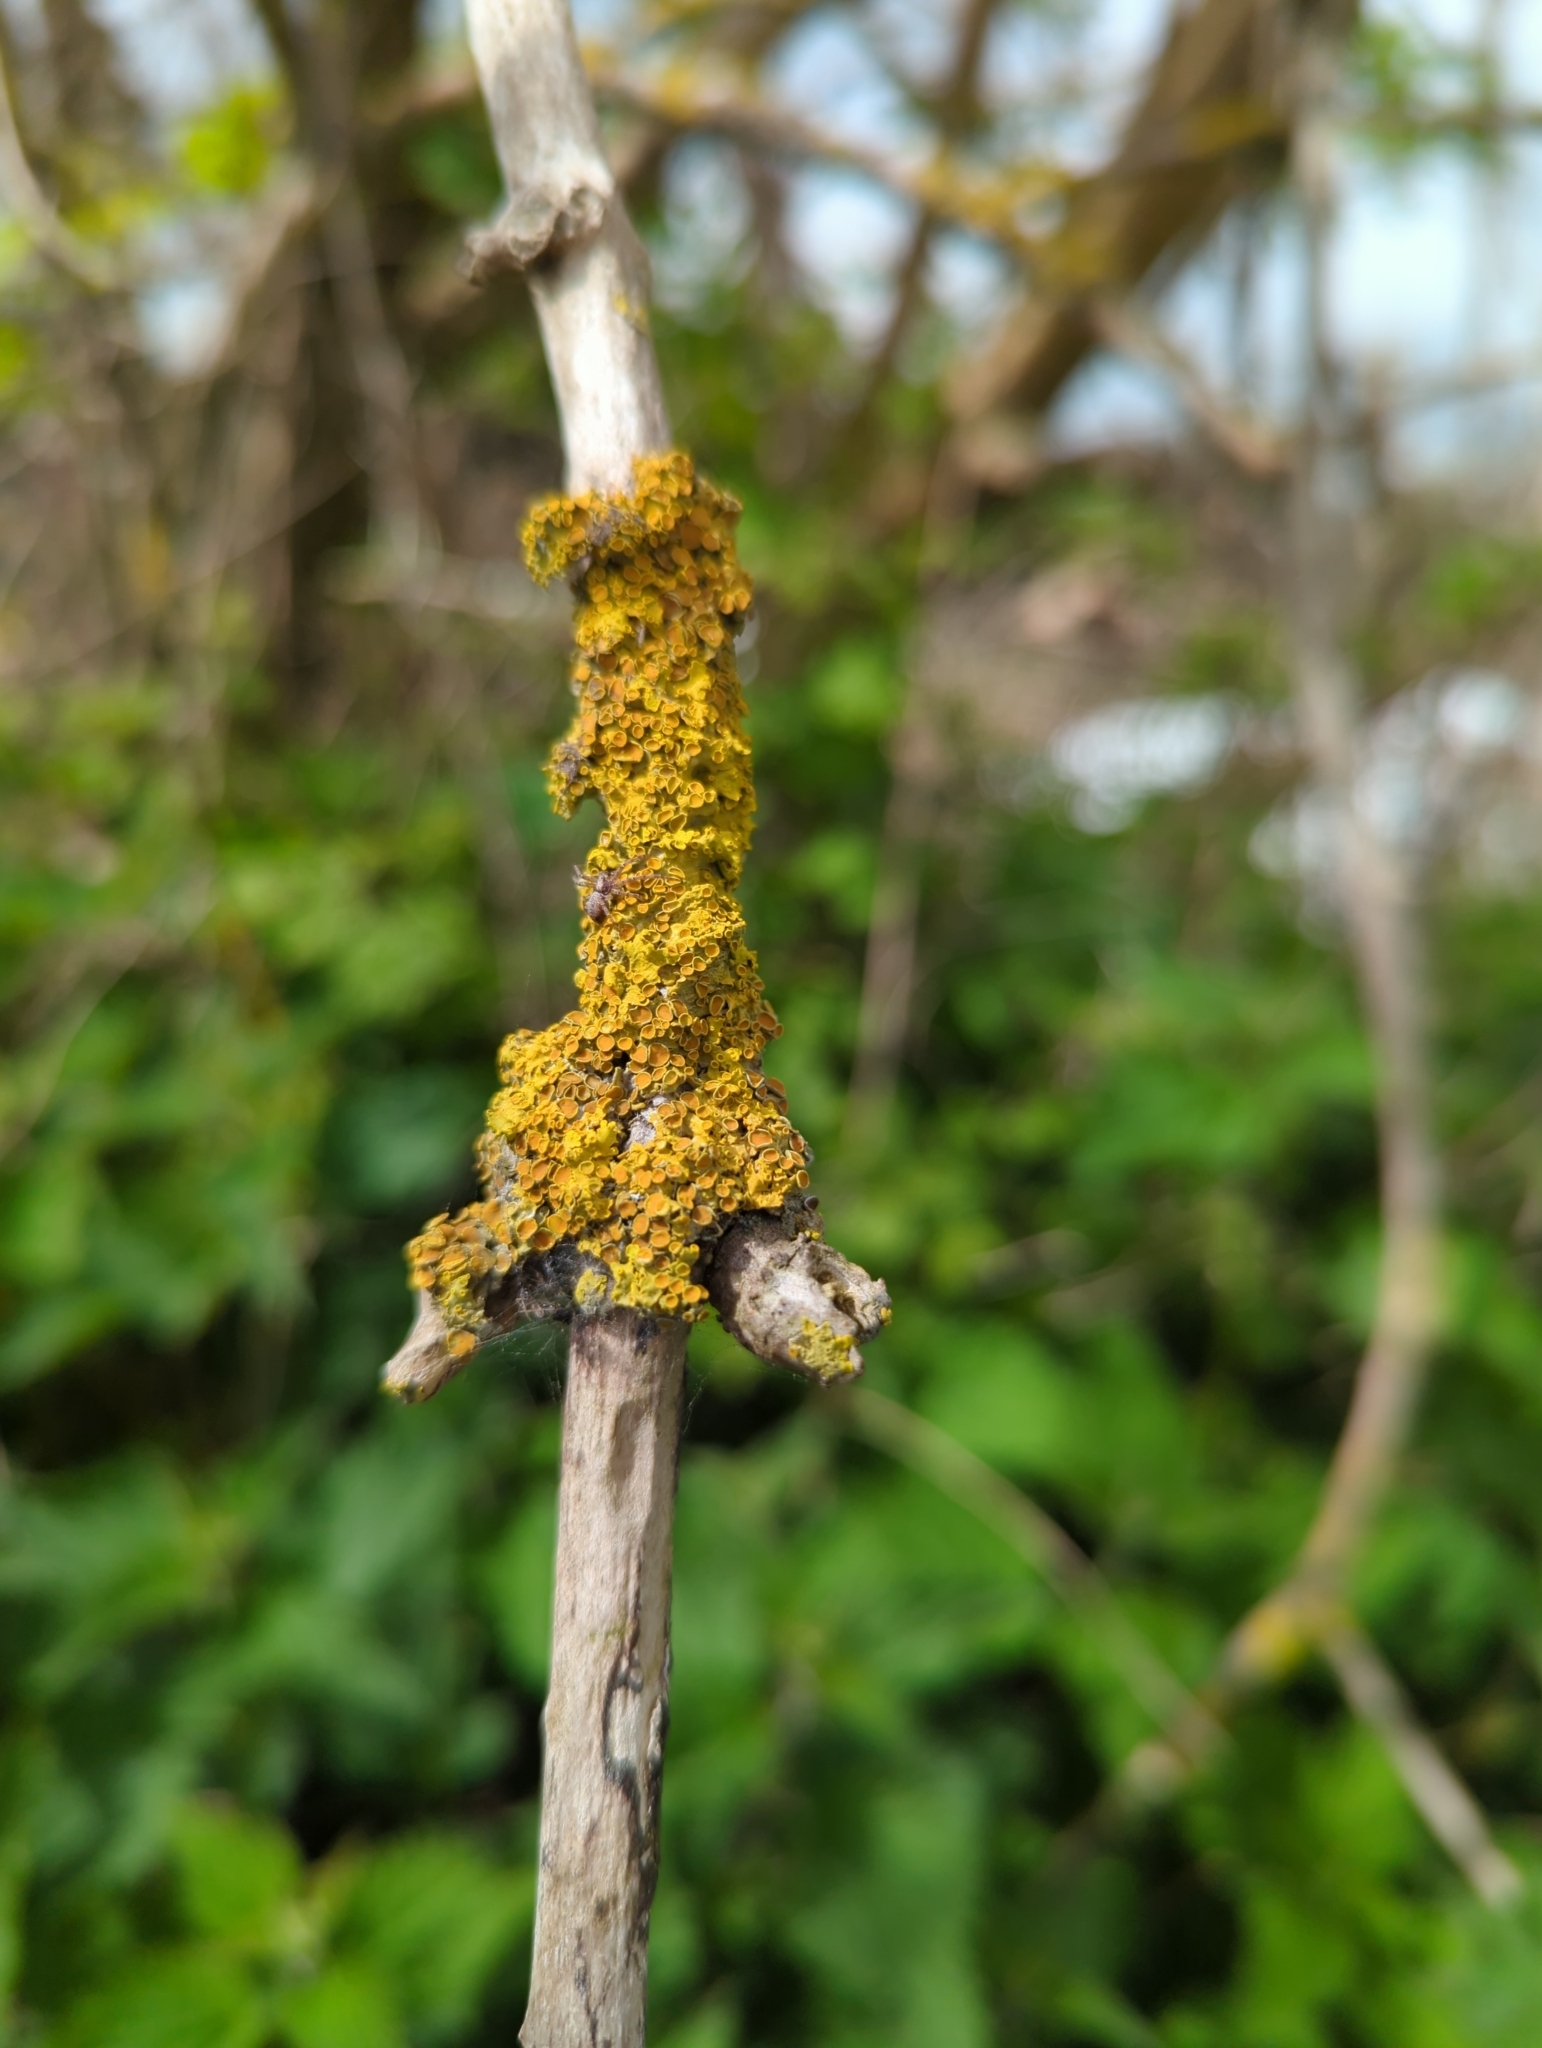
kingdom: Fungi
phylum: Ascomycota
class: Lecanoromycetes
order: Teloschistales
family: Teloschistaceae
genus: Xanthoria
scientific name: Xanthoria parietina
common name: Common orange lichen
